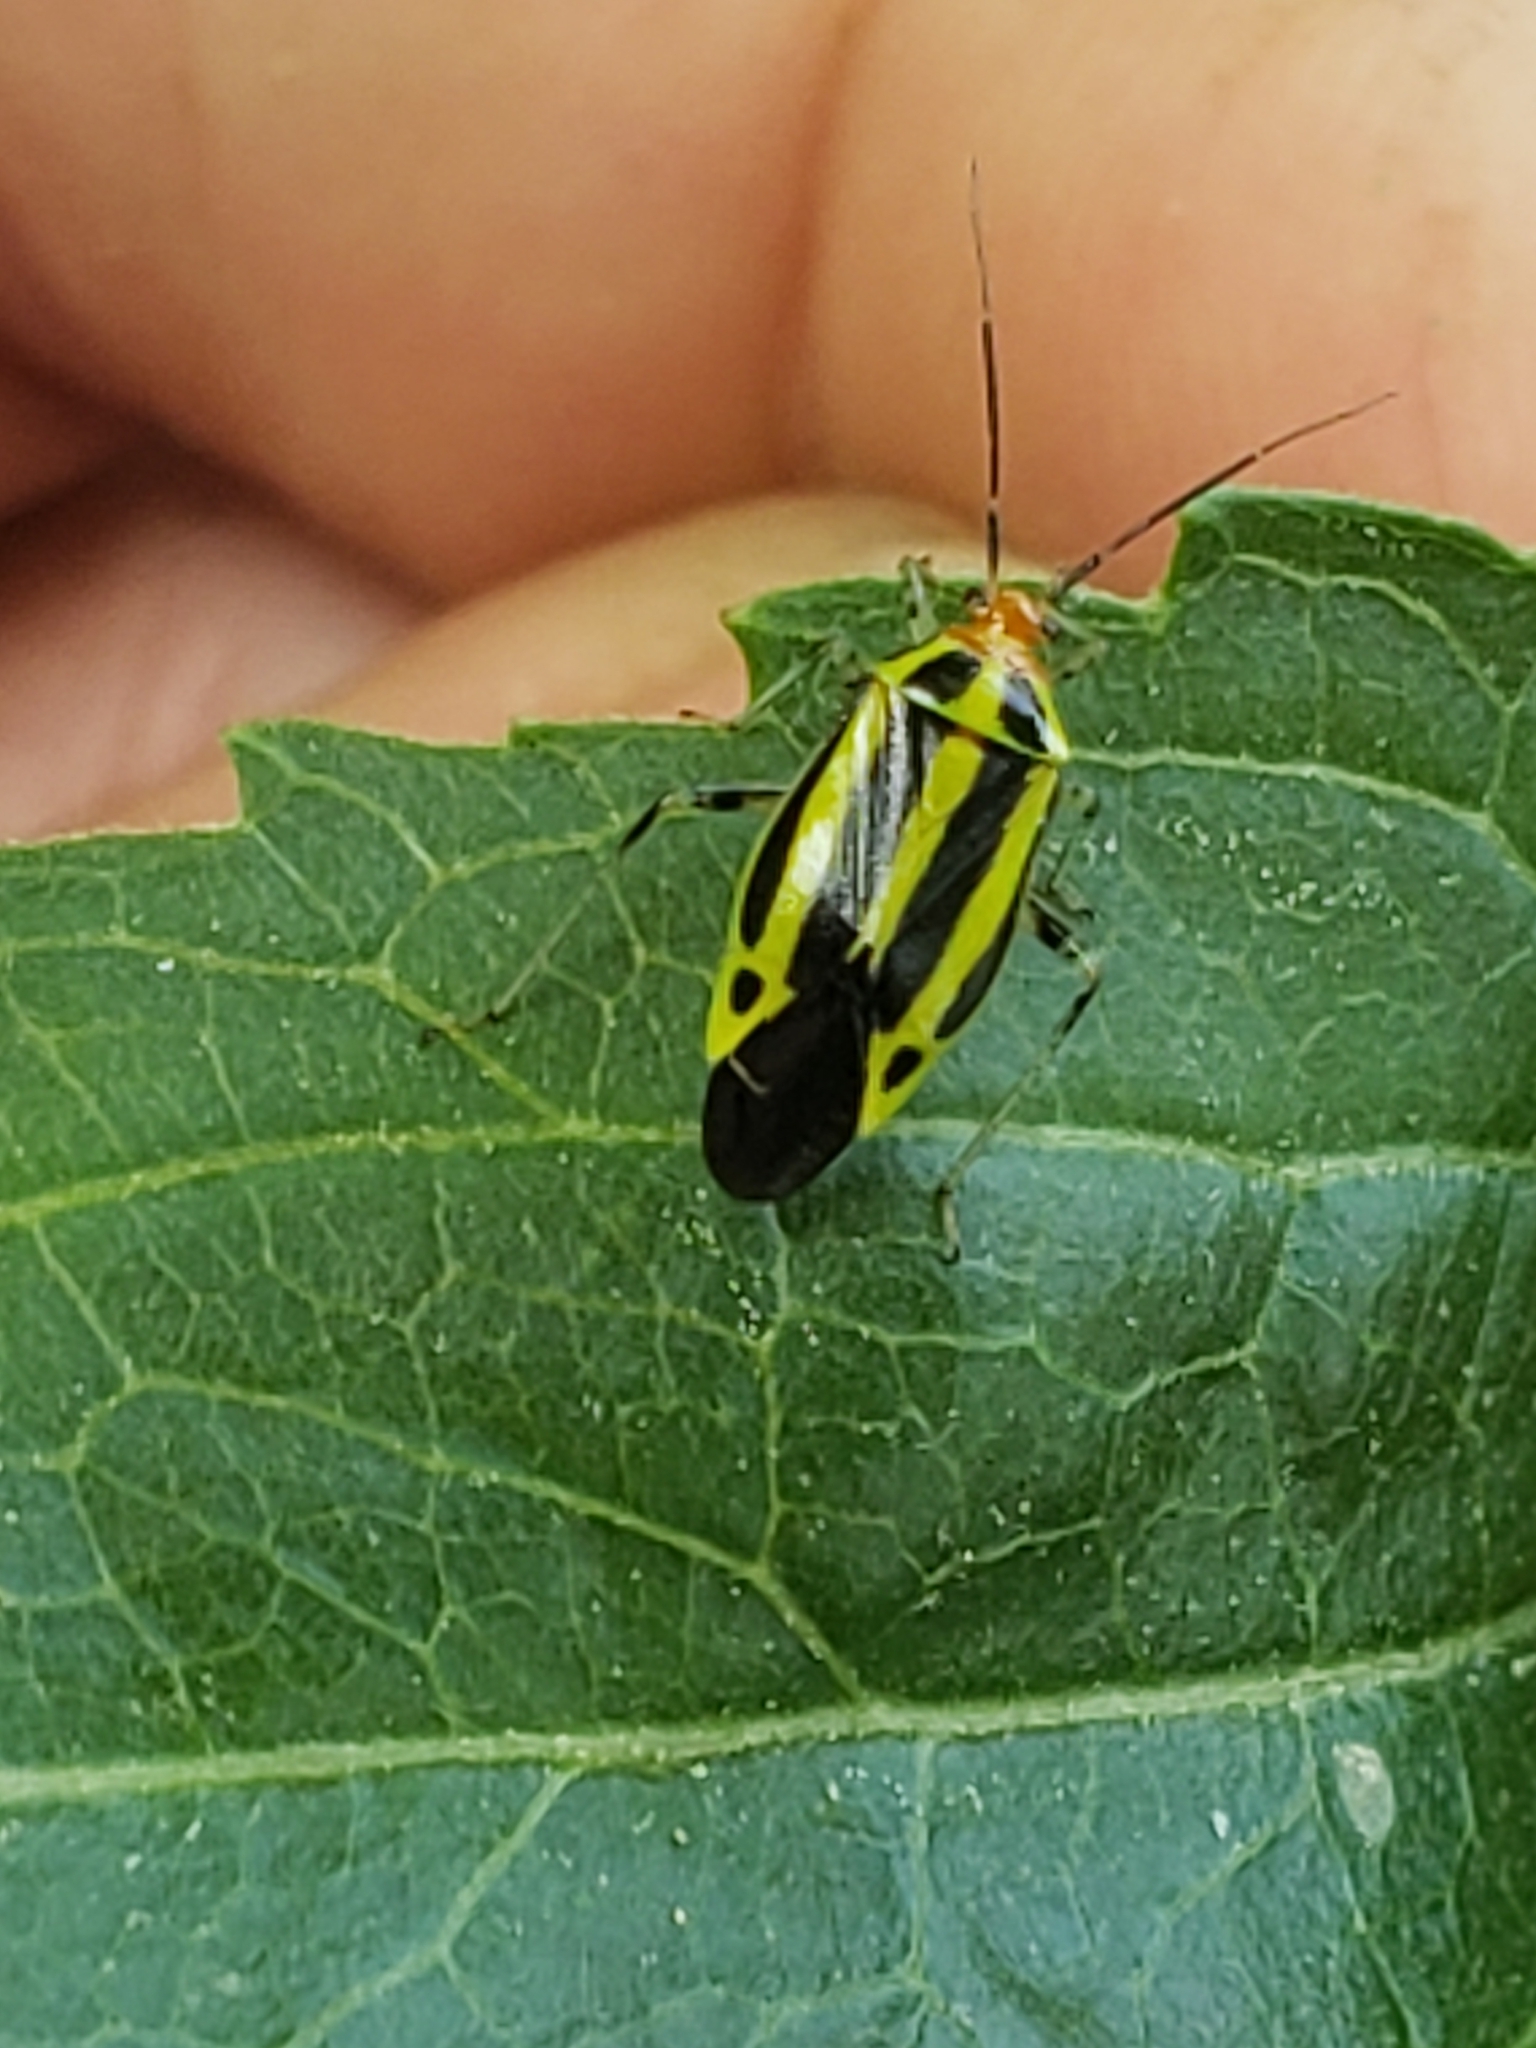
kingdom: Animalia
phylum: Arthropoda
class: Insecta
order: Hemiptera
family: Miridae
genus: Poecilocapsus
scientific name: Poecilocapsus lineatus
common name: Four-lined plant bug
